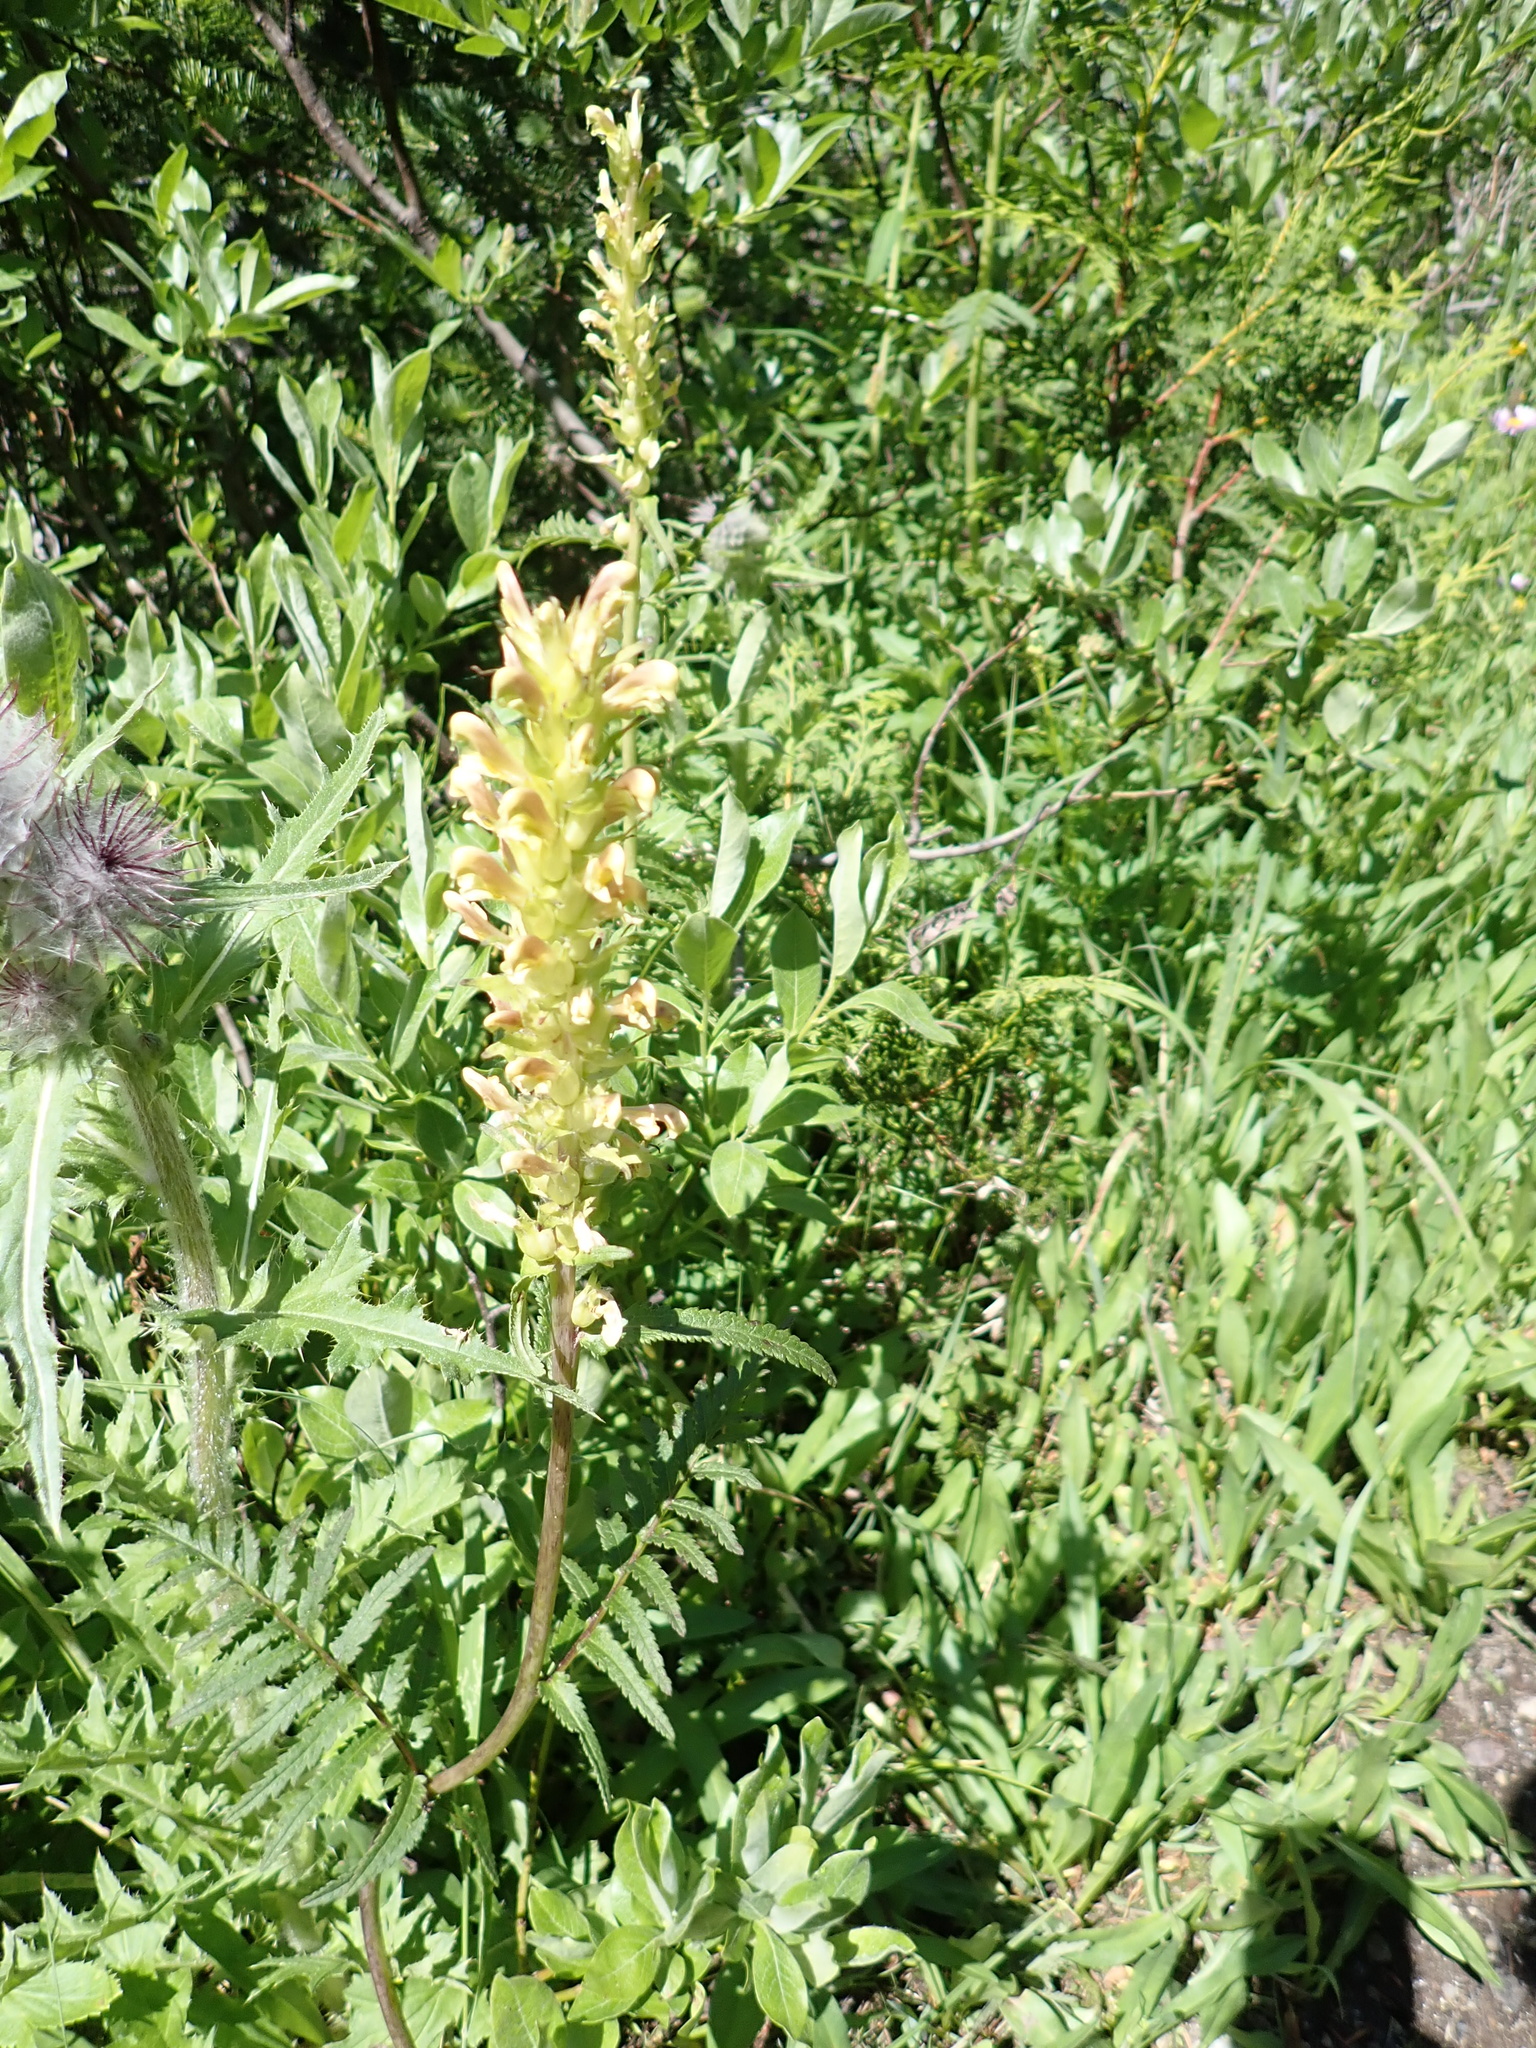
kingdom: Plantae
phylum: Tracheophyta
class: Magnoliopsida
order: Lamiales
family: Orobanchaceae
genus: Pedicularis
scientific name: Pedicularis bracteosa
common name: Bracted lousewort
